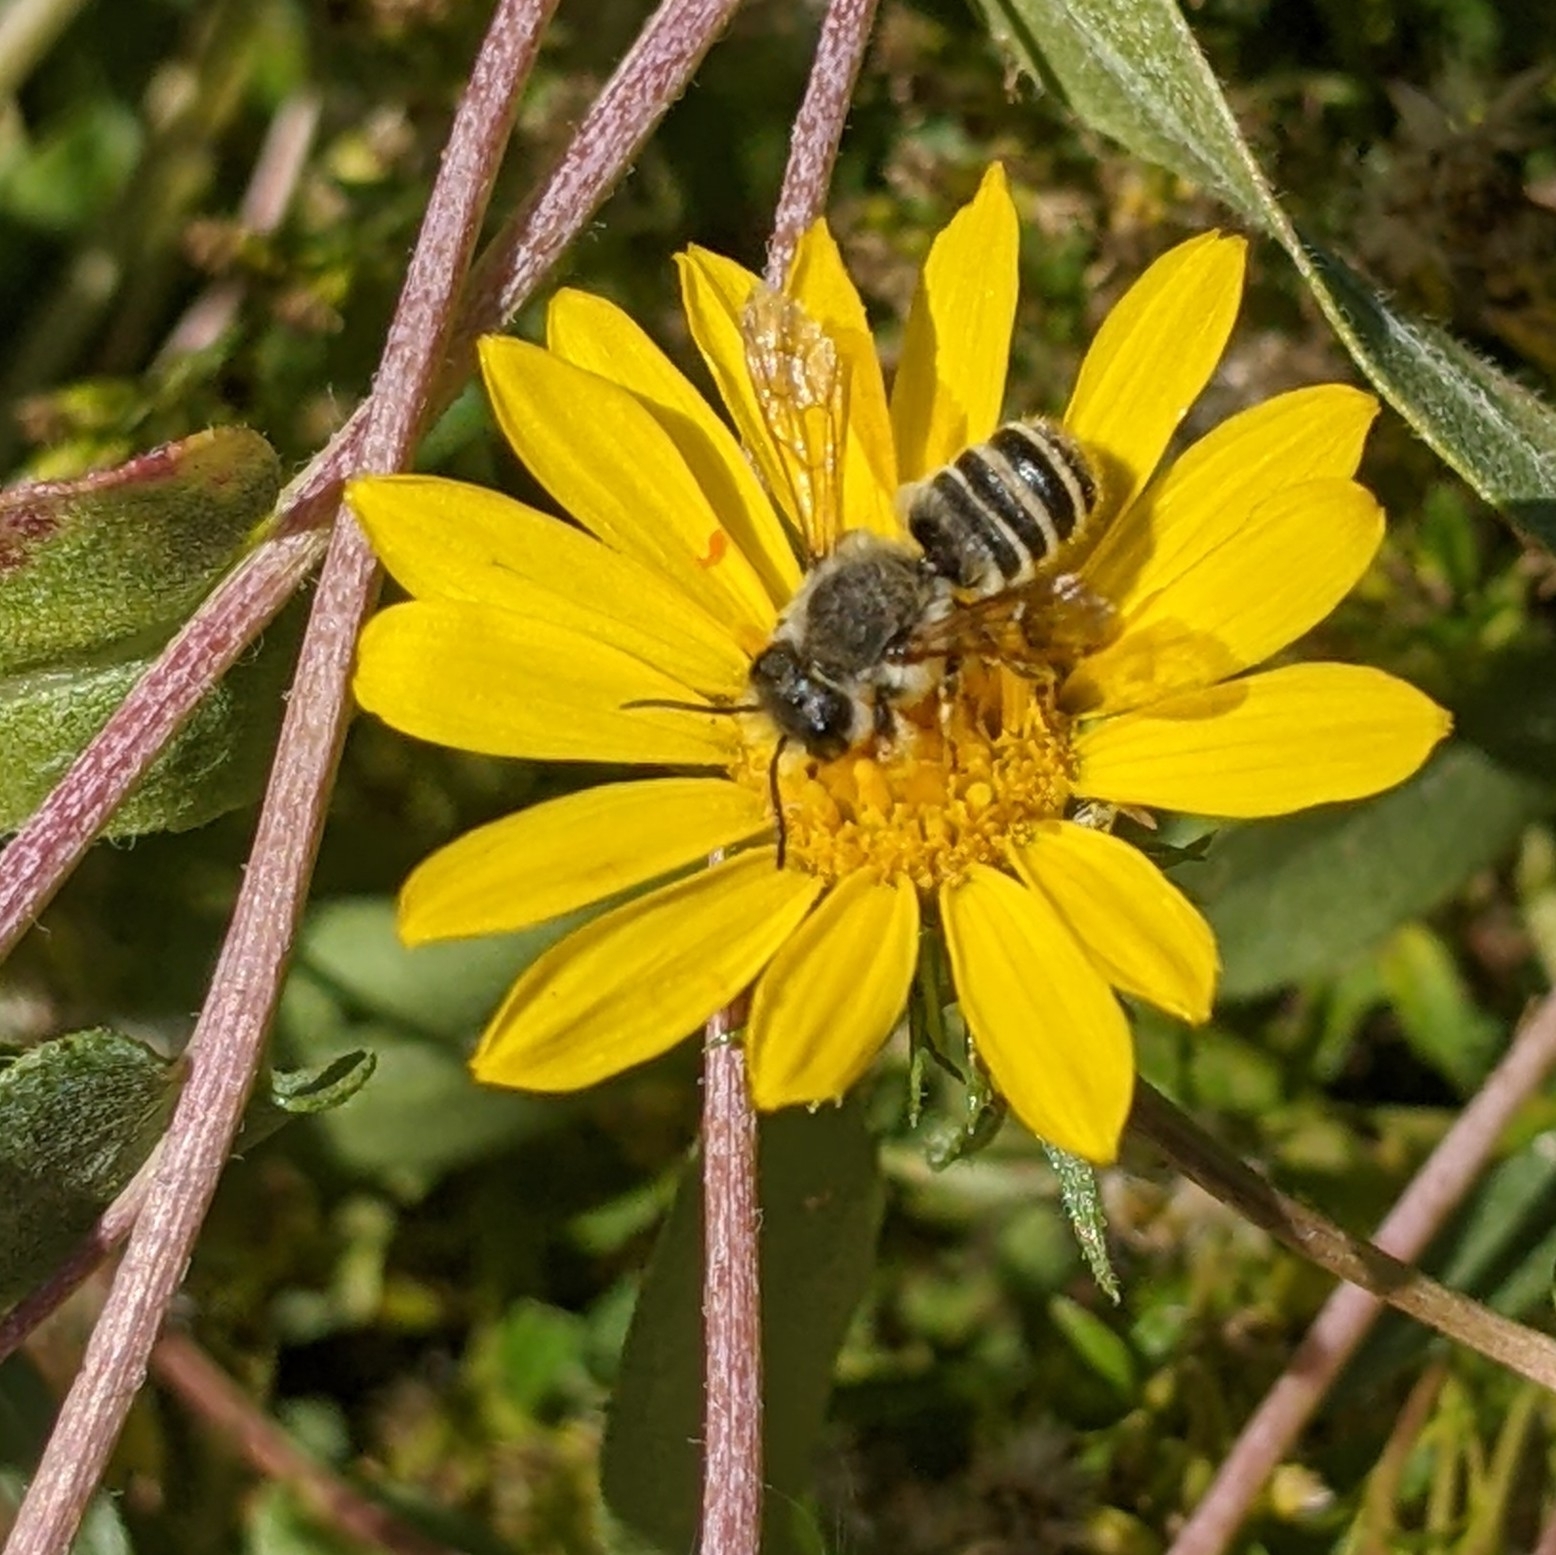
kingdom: Animalia
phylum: Arthropoda
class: Insecta
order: Hymenoptera
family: Megachilidae
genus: Megachile
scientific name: Megachile fidelis
